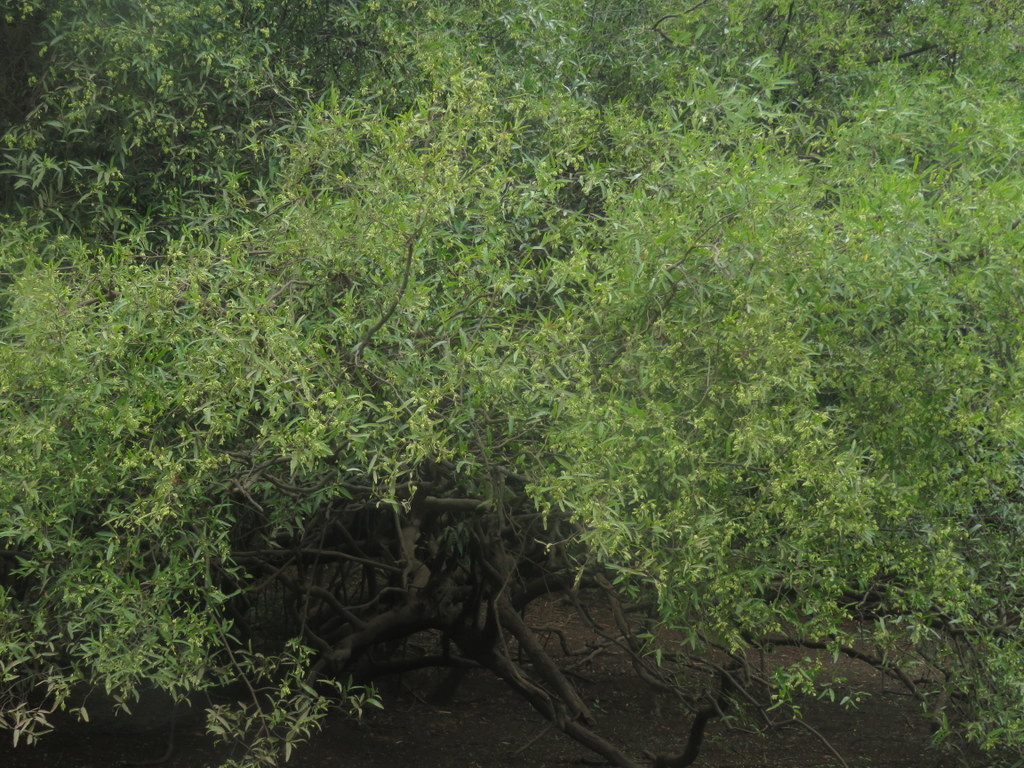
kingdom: Plantae
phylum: Tracheophyta
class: Magnoliopsida
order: Caryophyllales
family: Polygonaceae
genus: Ruprechtia
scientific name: Ruprechtia salicifolia
